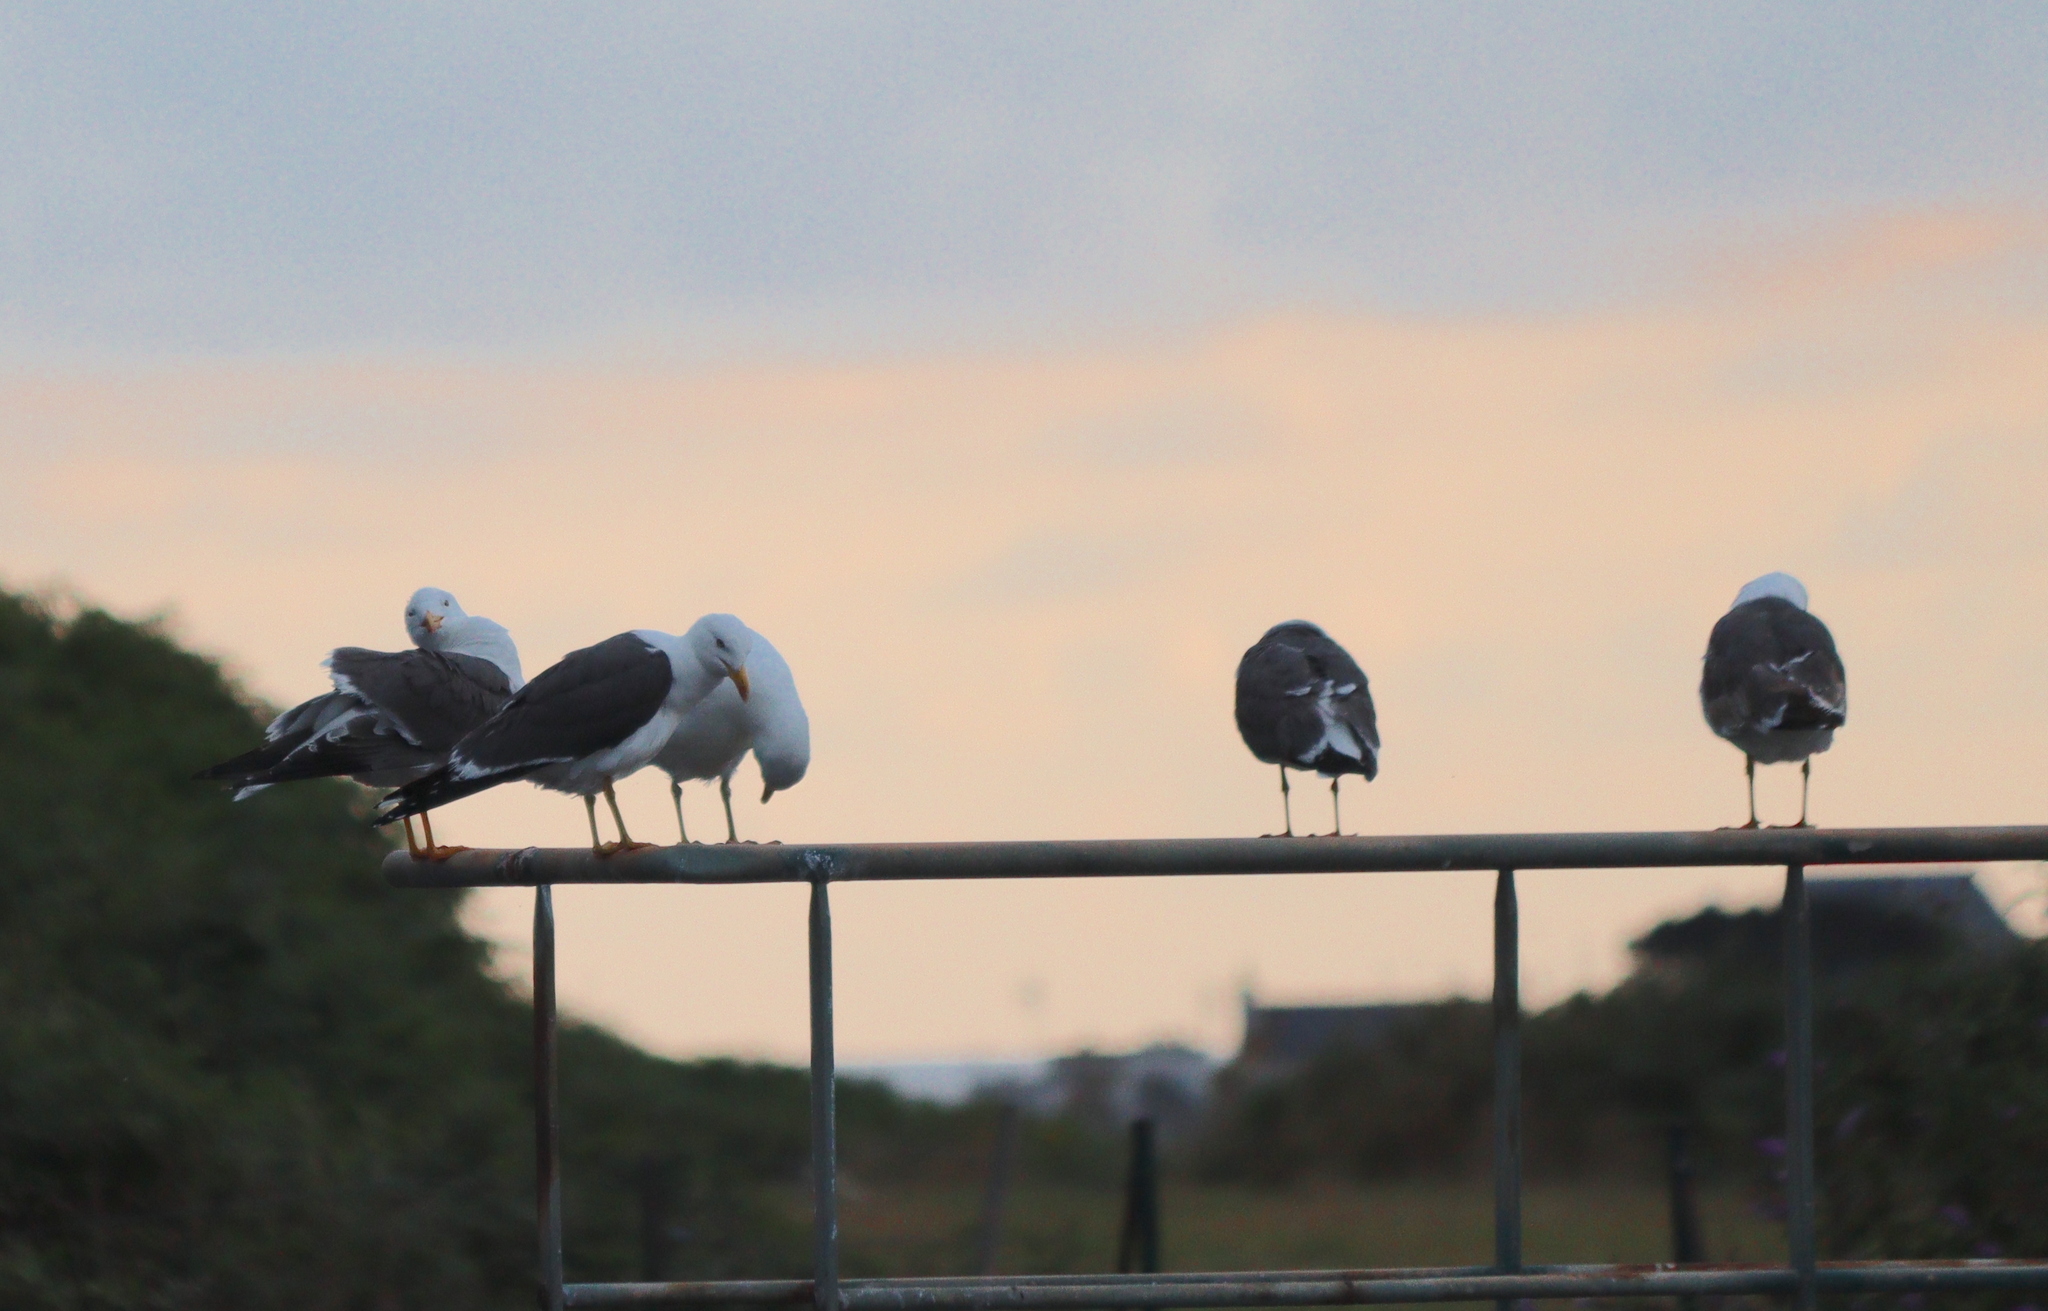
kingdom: Animalia
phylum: Chordata
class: Aves
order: Charadriiformes
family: Laridae
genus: Larus
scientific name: Larus fuscus
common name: Lesser black-backed gull
